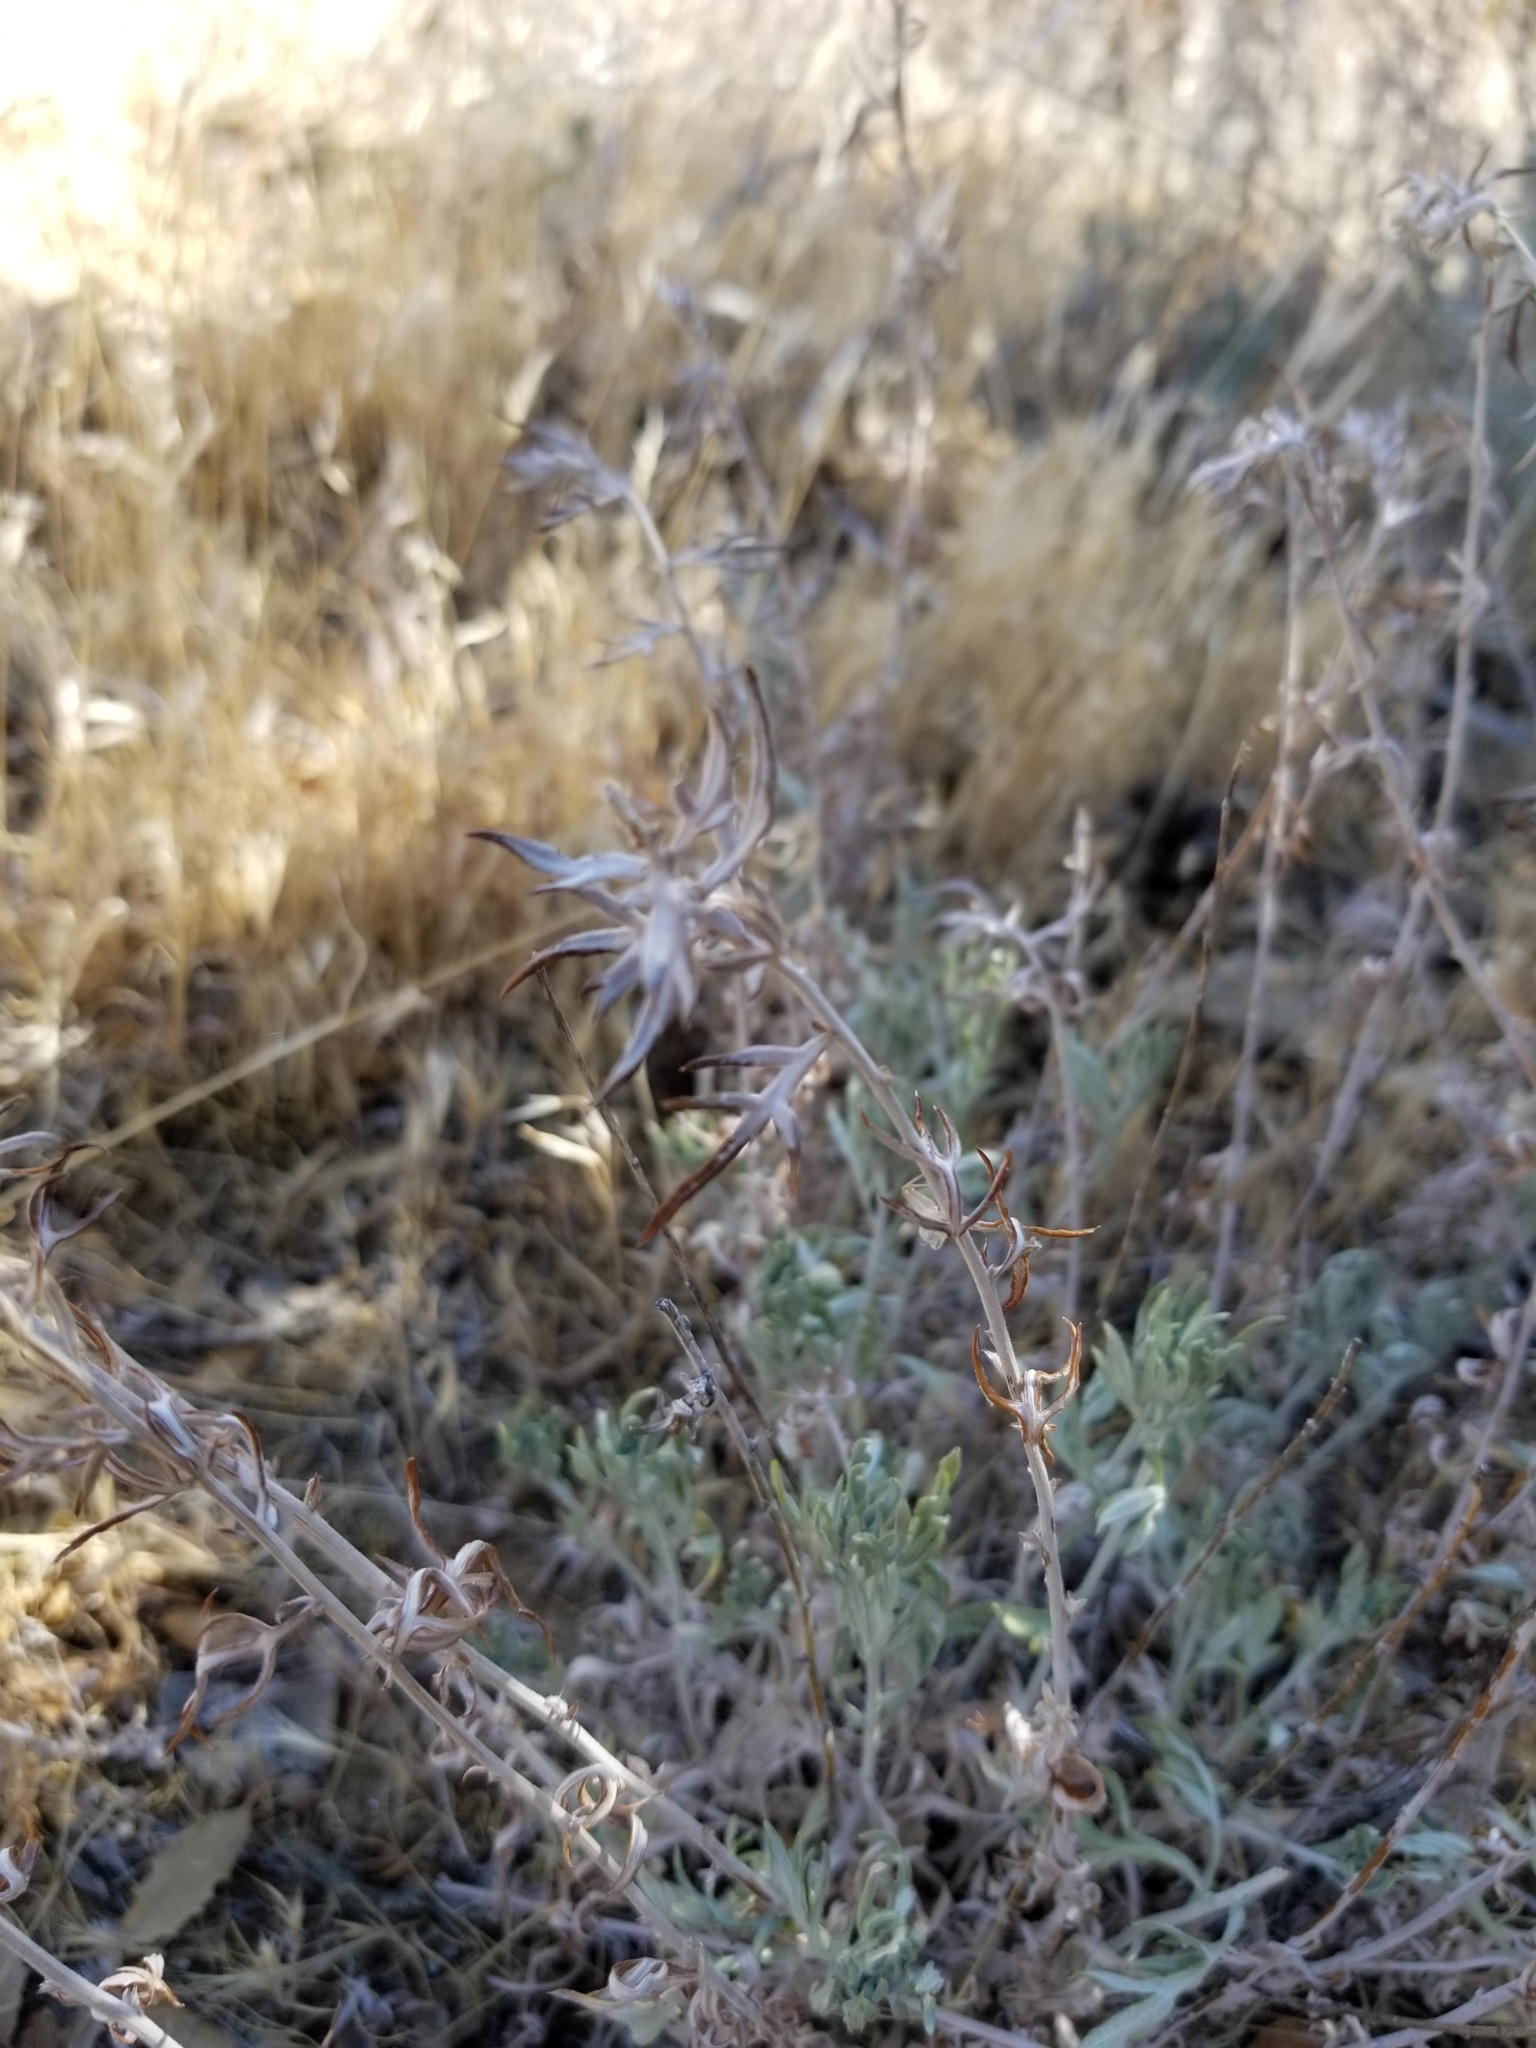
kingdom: Plantae
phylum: Tracheophyta
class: Magnoliopsida
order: Asterales
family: Asteraceae
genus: Artemisia
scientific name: Artemisia ludoviciana
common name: Western mugwort
